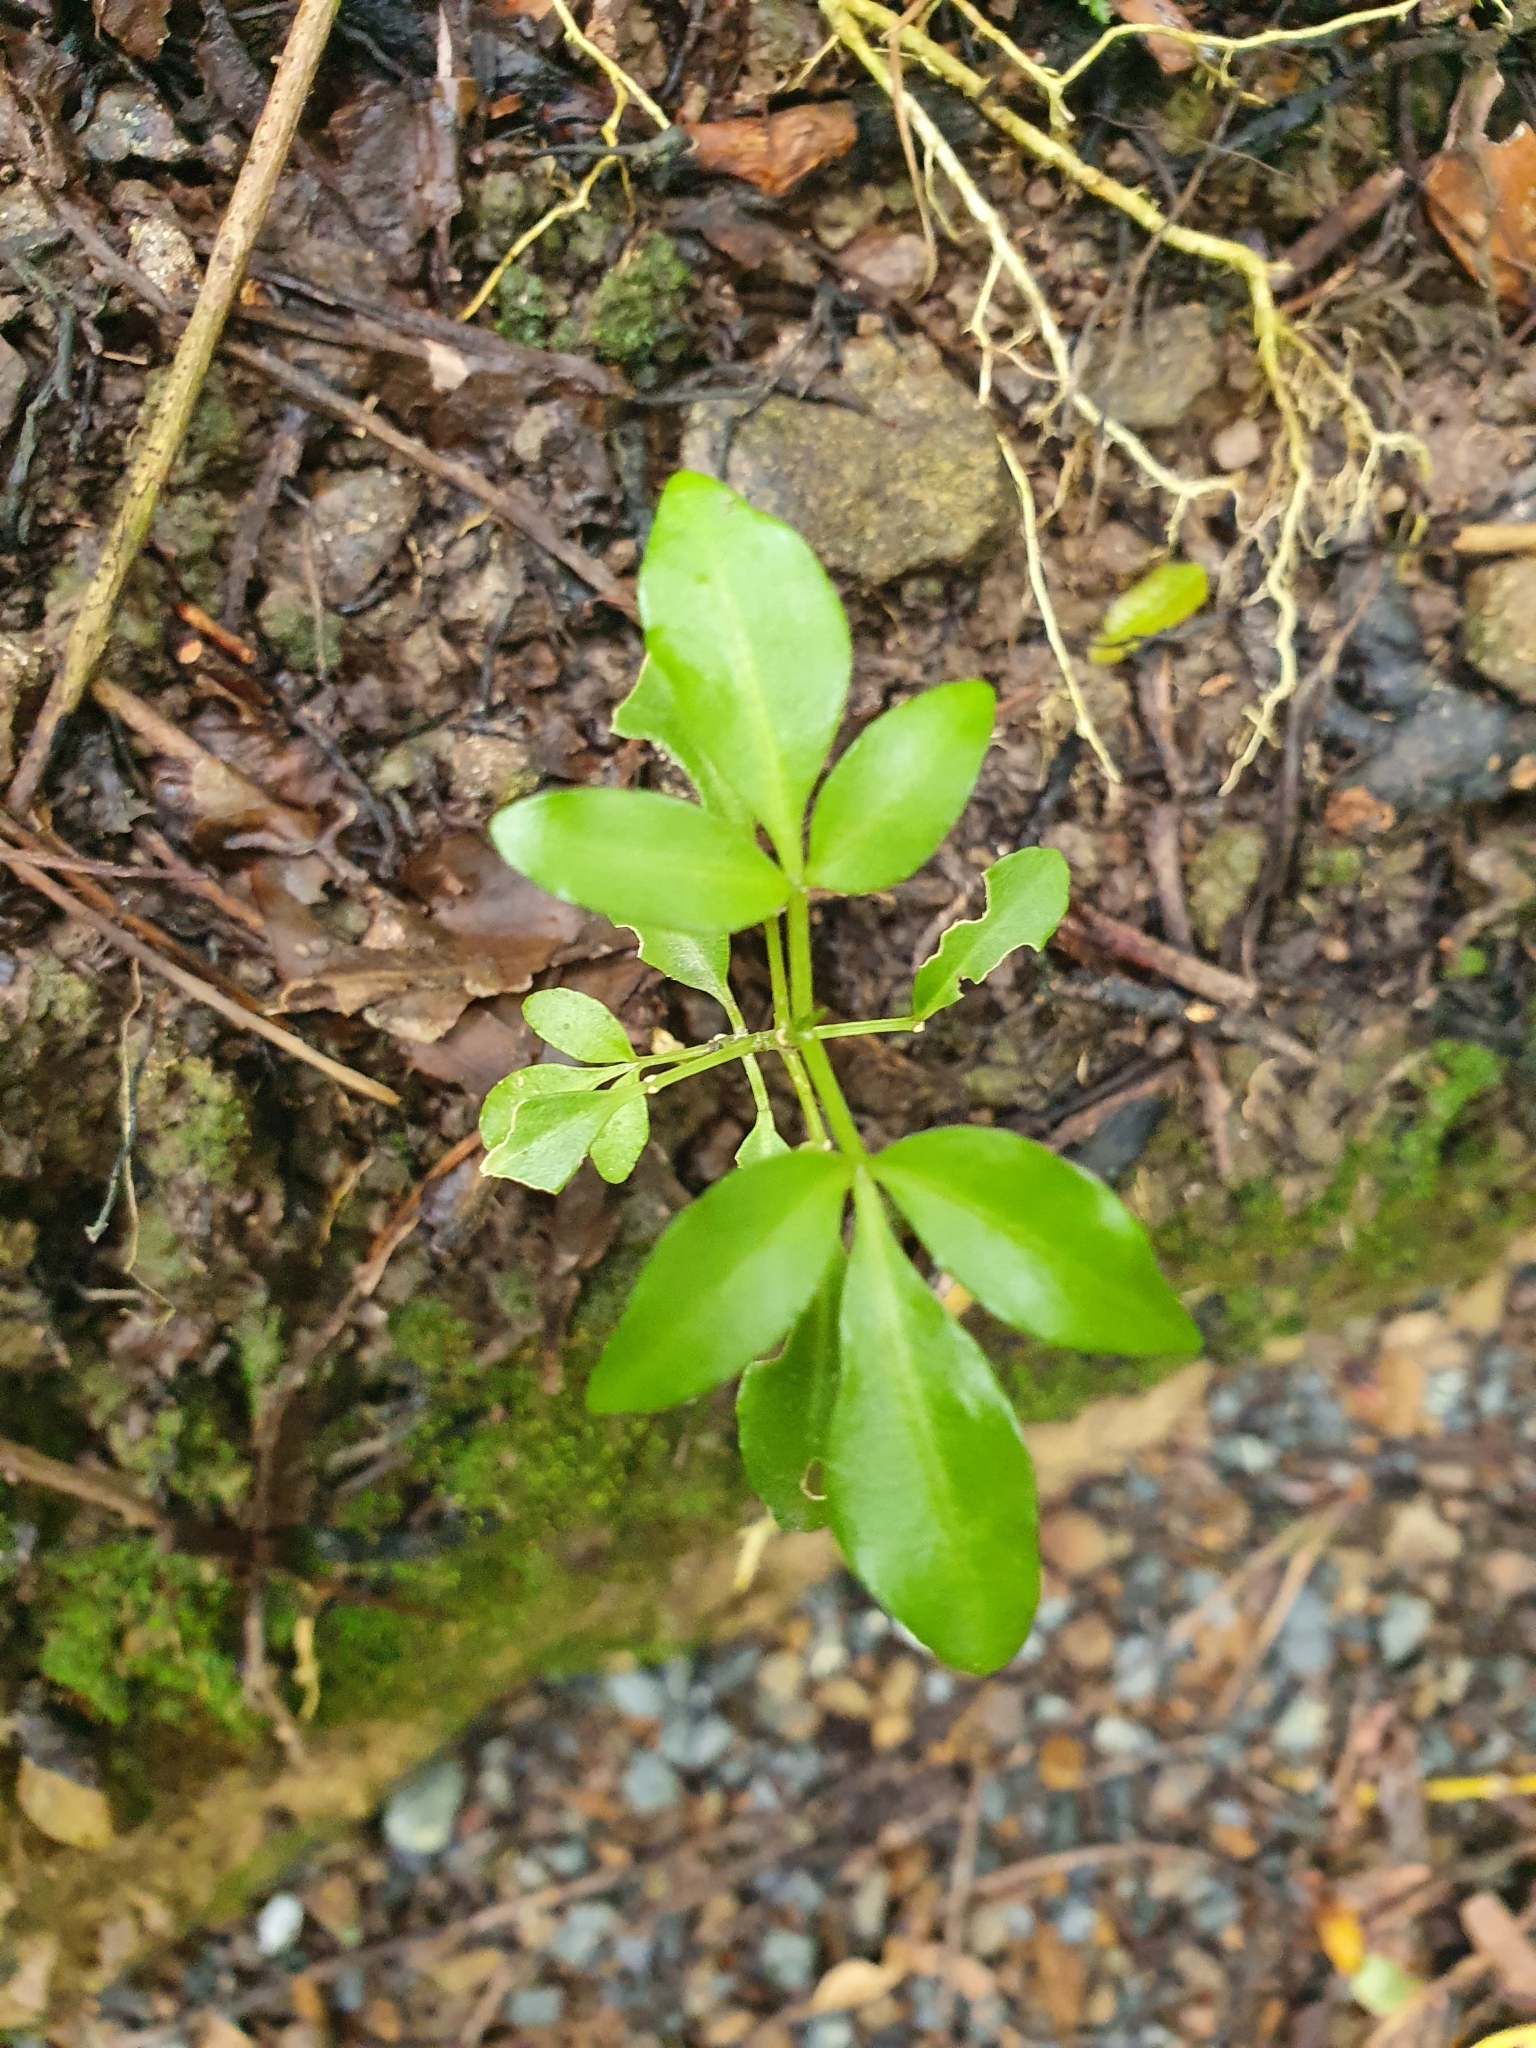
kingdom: Plantae
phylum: Tracheophyta
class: Magnoliopsida
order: Sapindales
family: Rutaceae
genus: Melicope
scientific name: Melicope ternata
